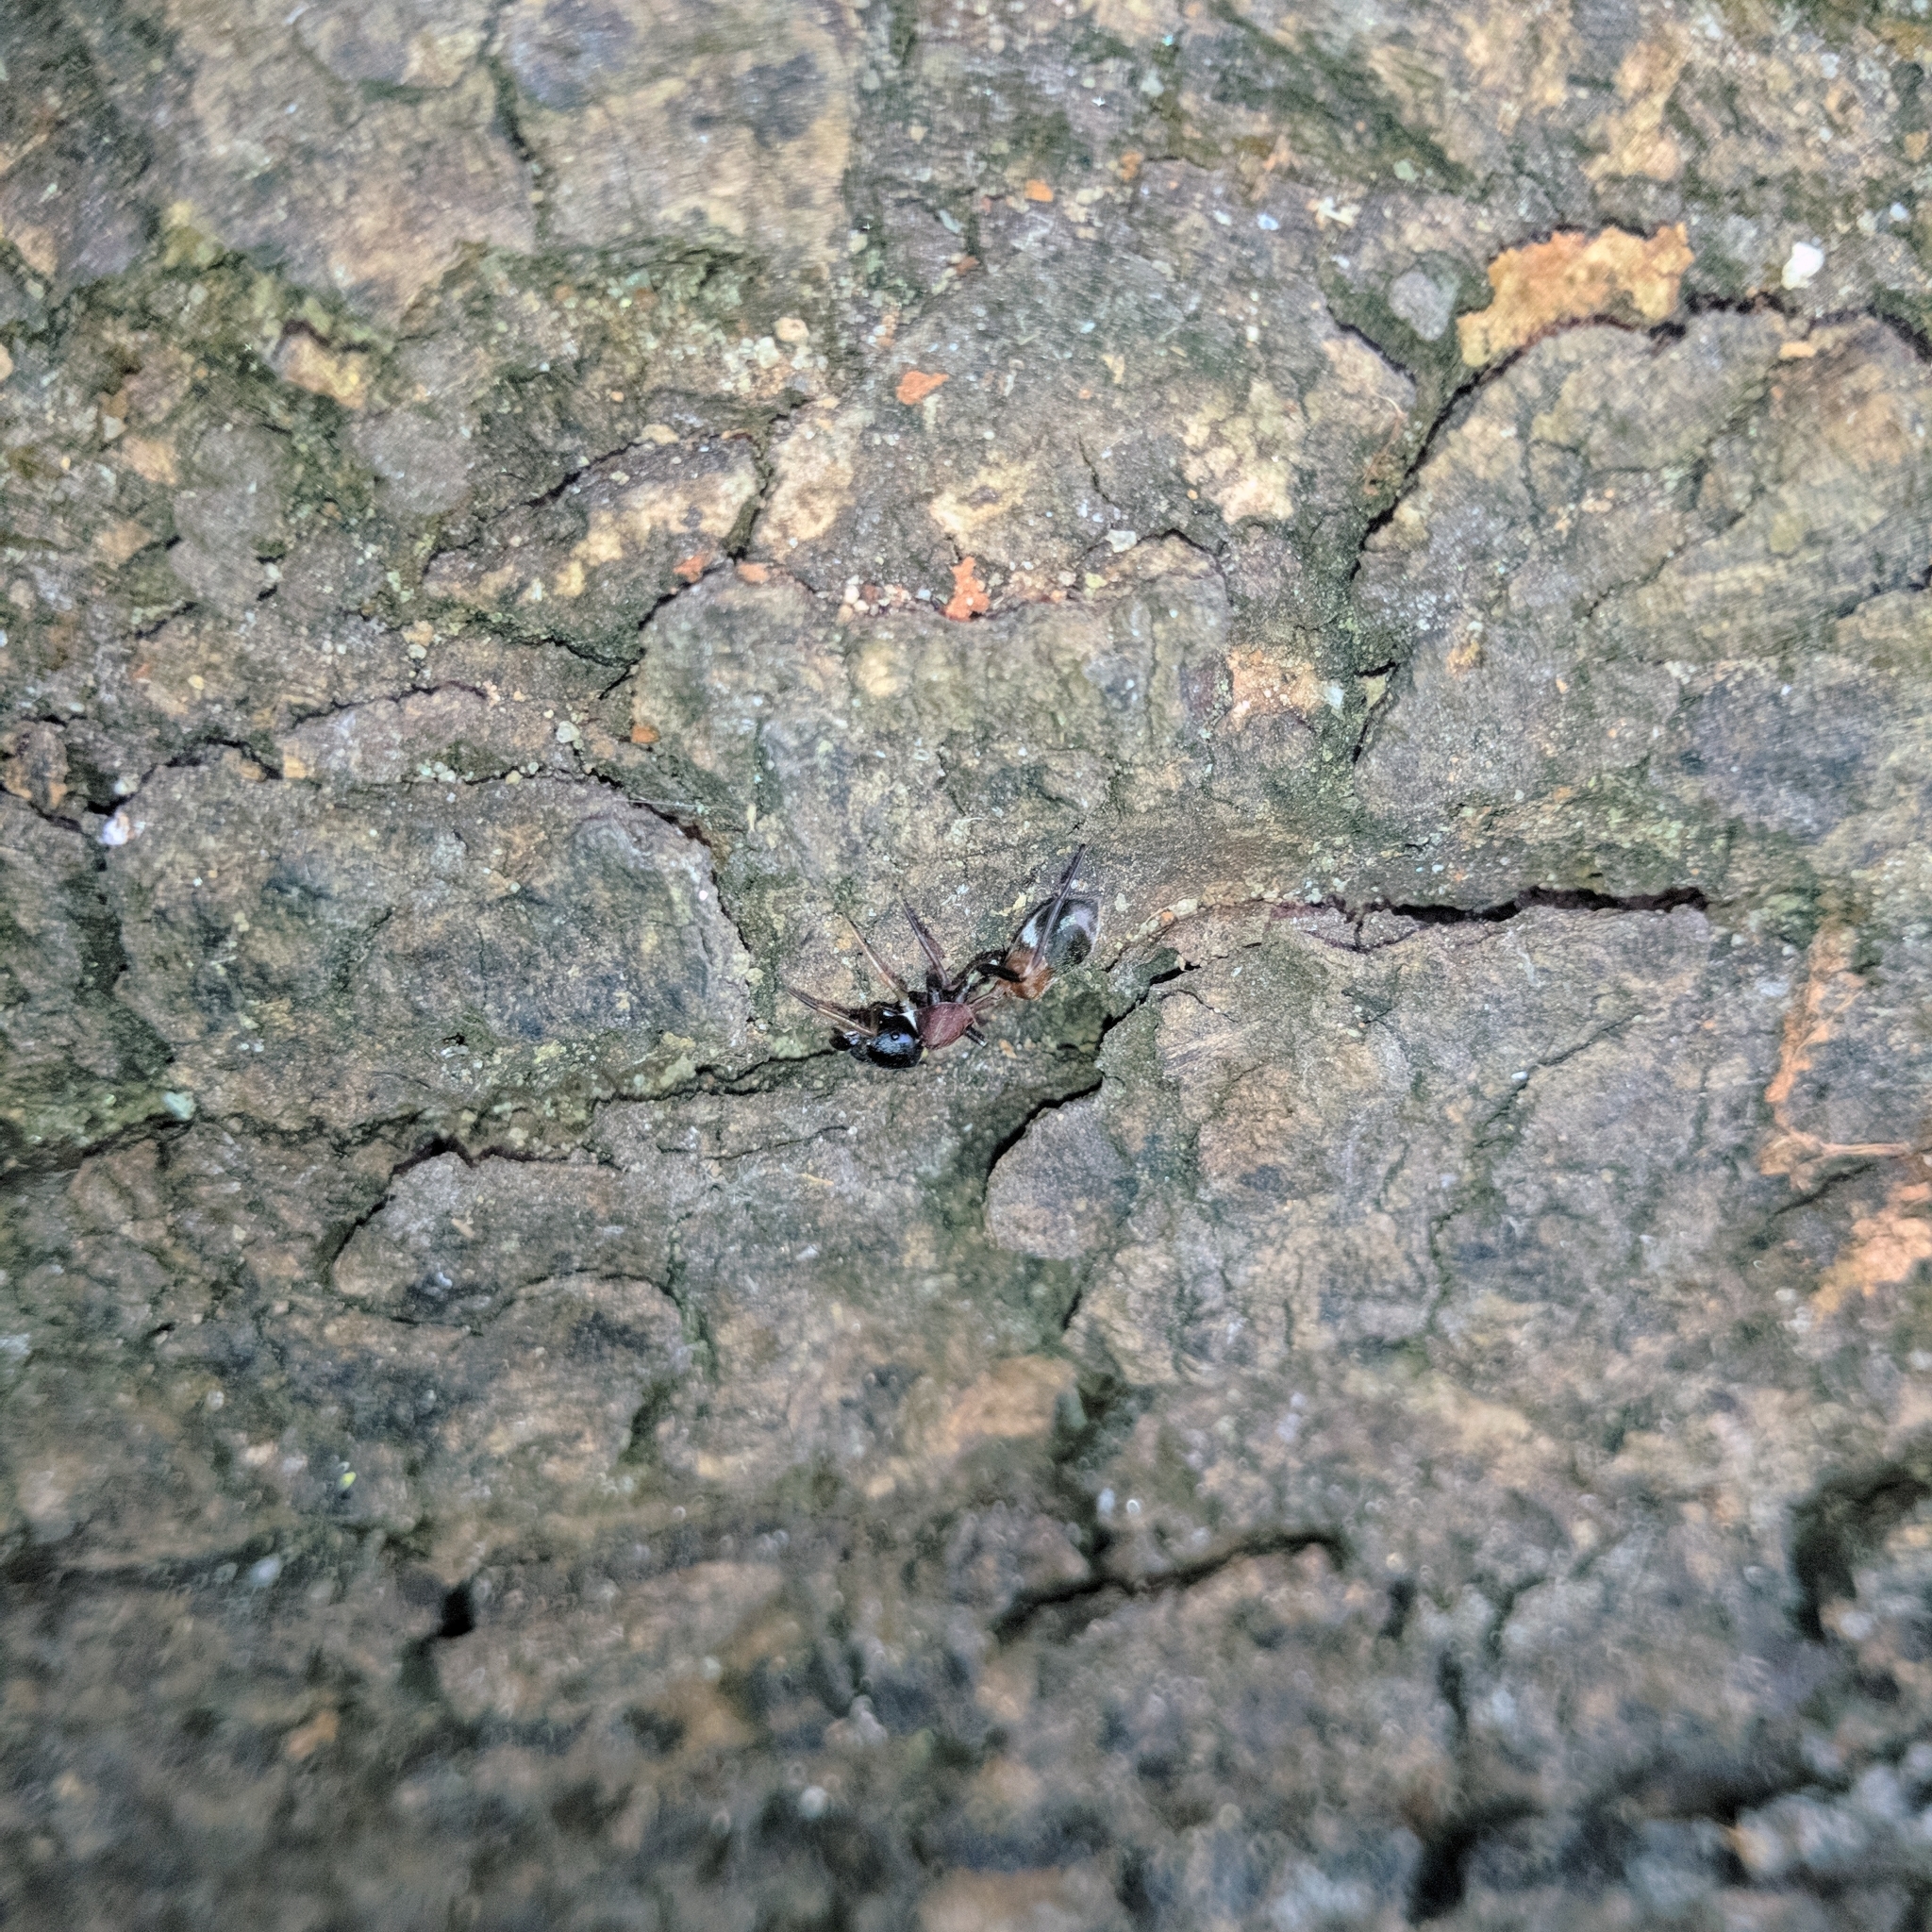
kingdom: Animalia
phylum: Arthropoda
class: Arachnida
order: Araneae
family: Salticidae
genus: Myrmarachne
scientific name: Myrmarachne melanocephala
